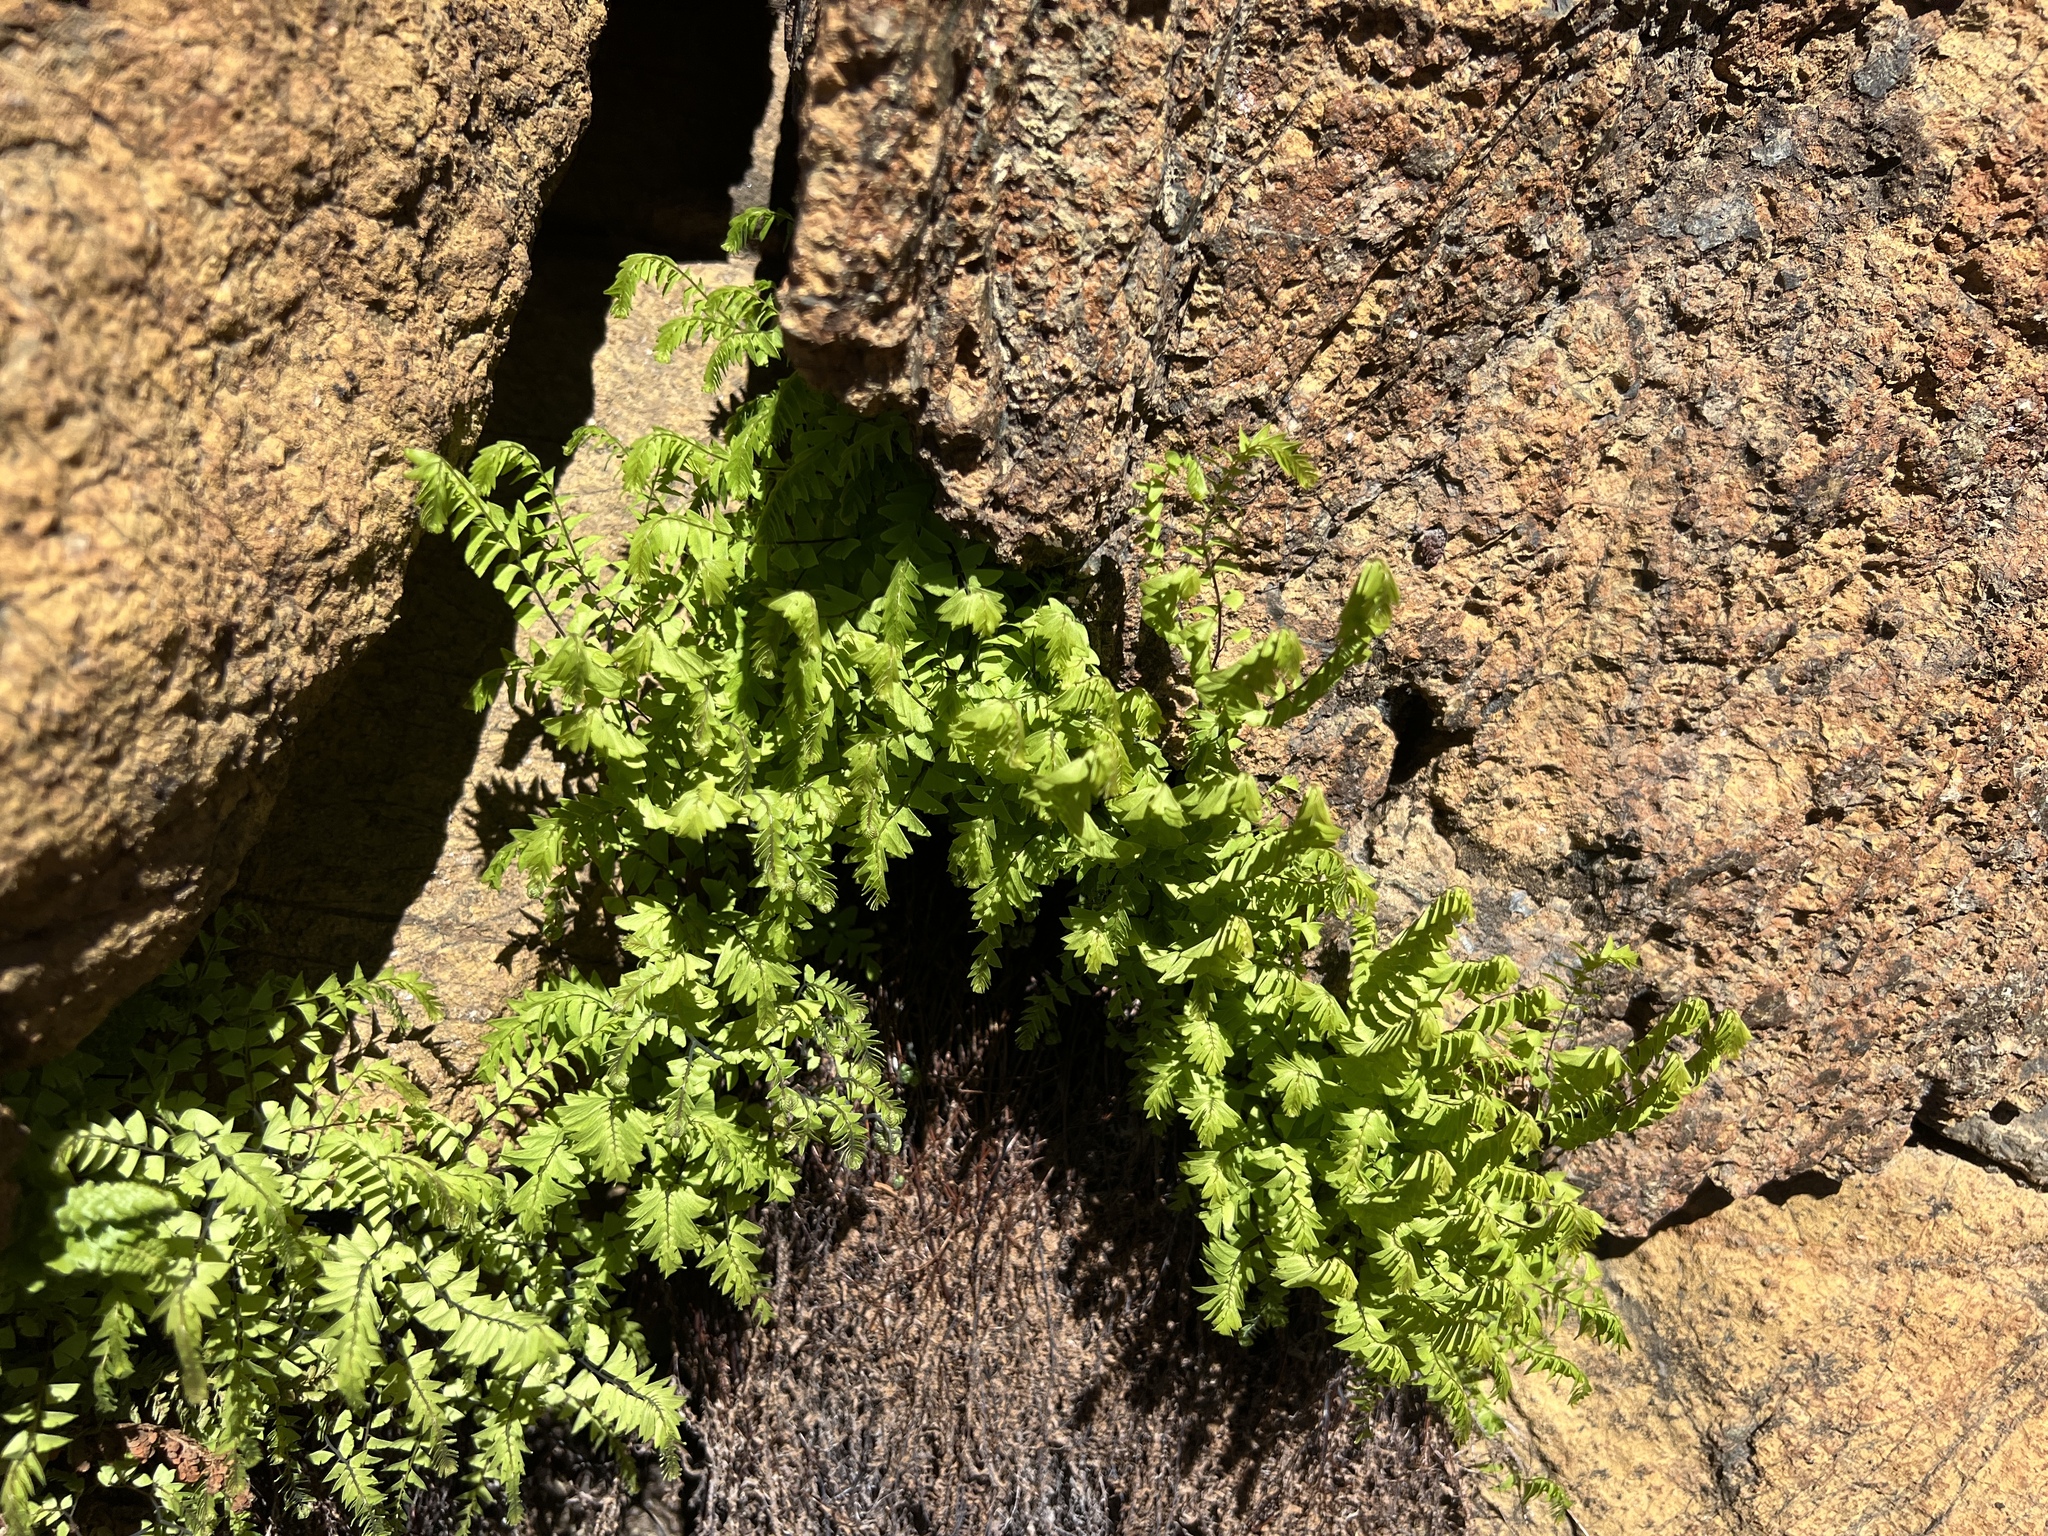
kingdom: Plantae
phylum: Tracheophyta
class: Polypodiopsida
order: Polypodiales
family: Pteridaceae
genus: Adiantum
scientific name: Adiantum aleuticum
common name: Aleutian maidenhair fern
